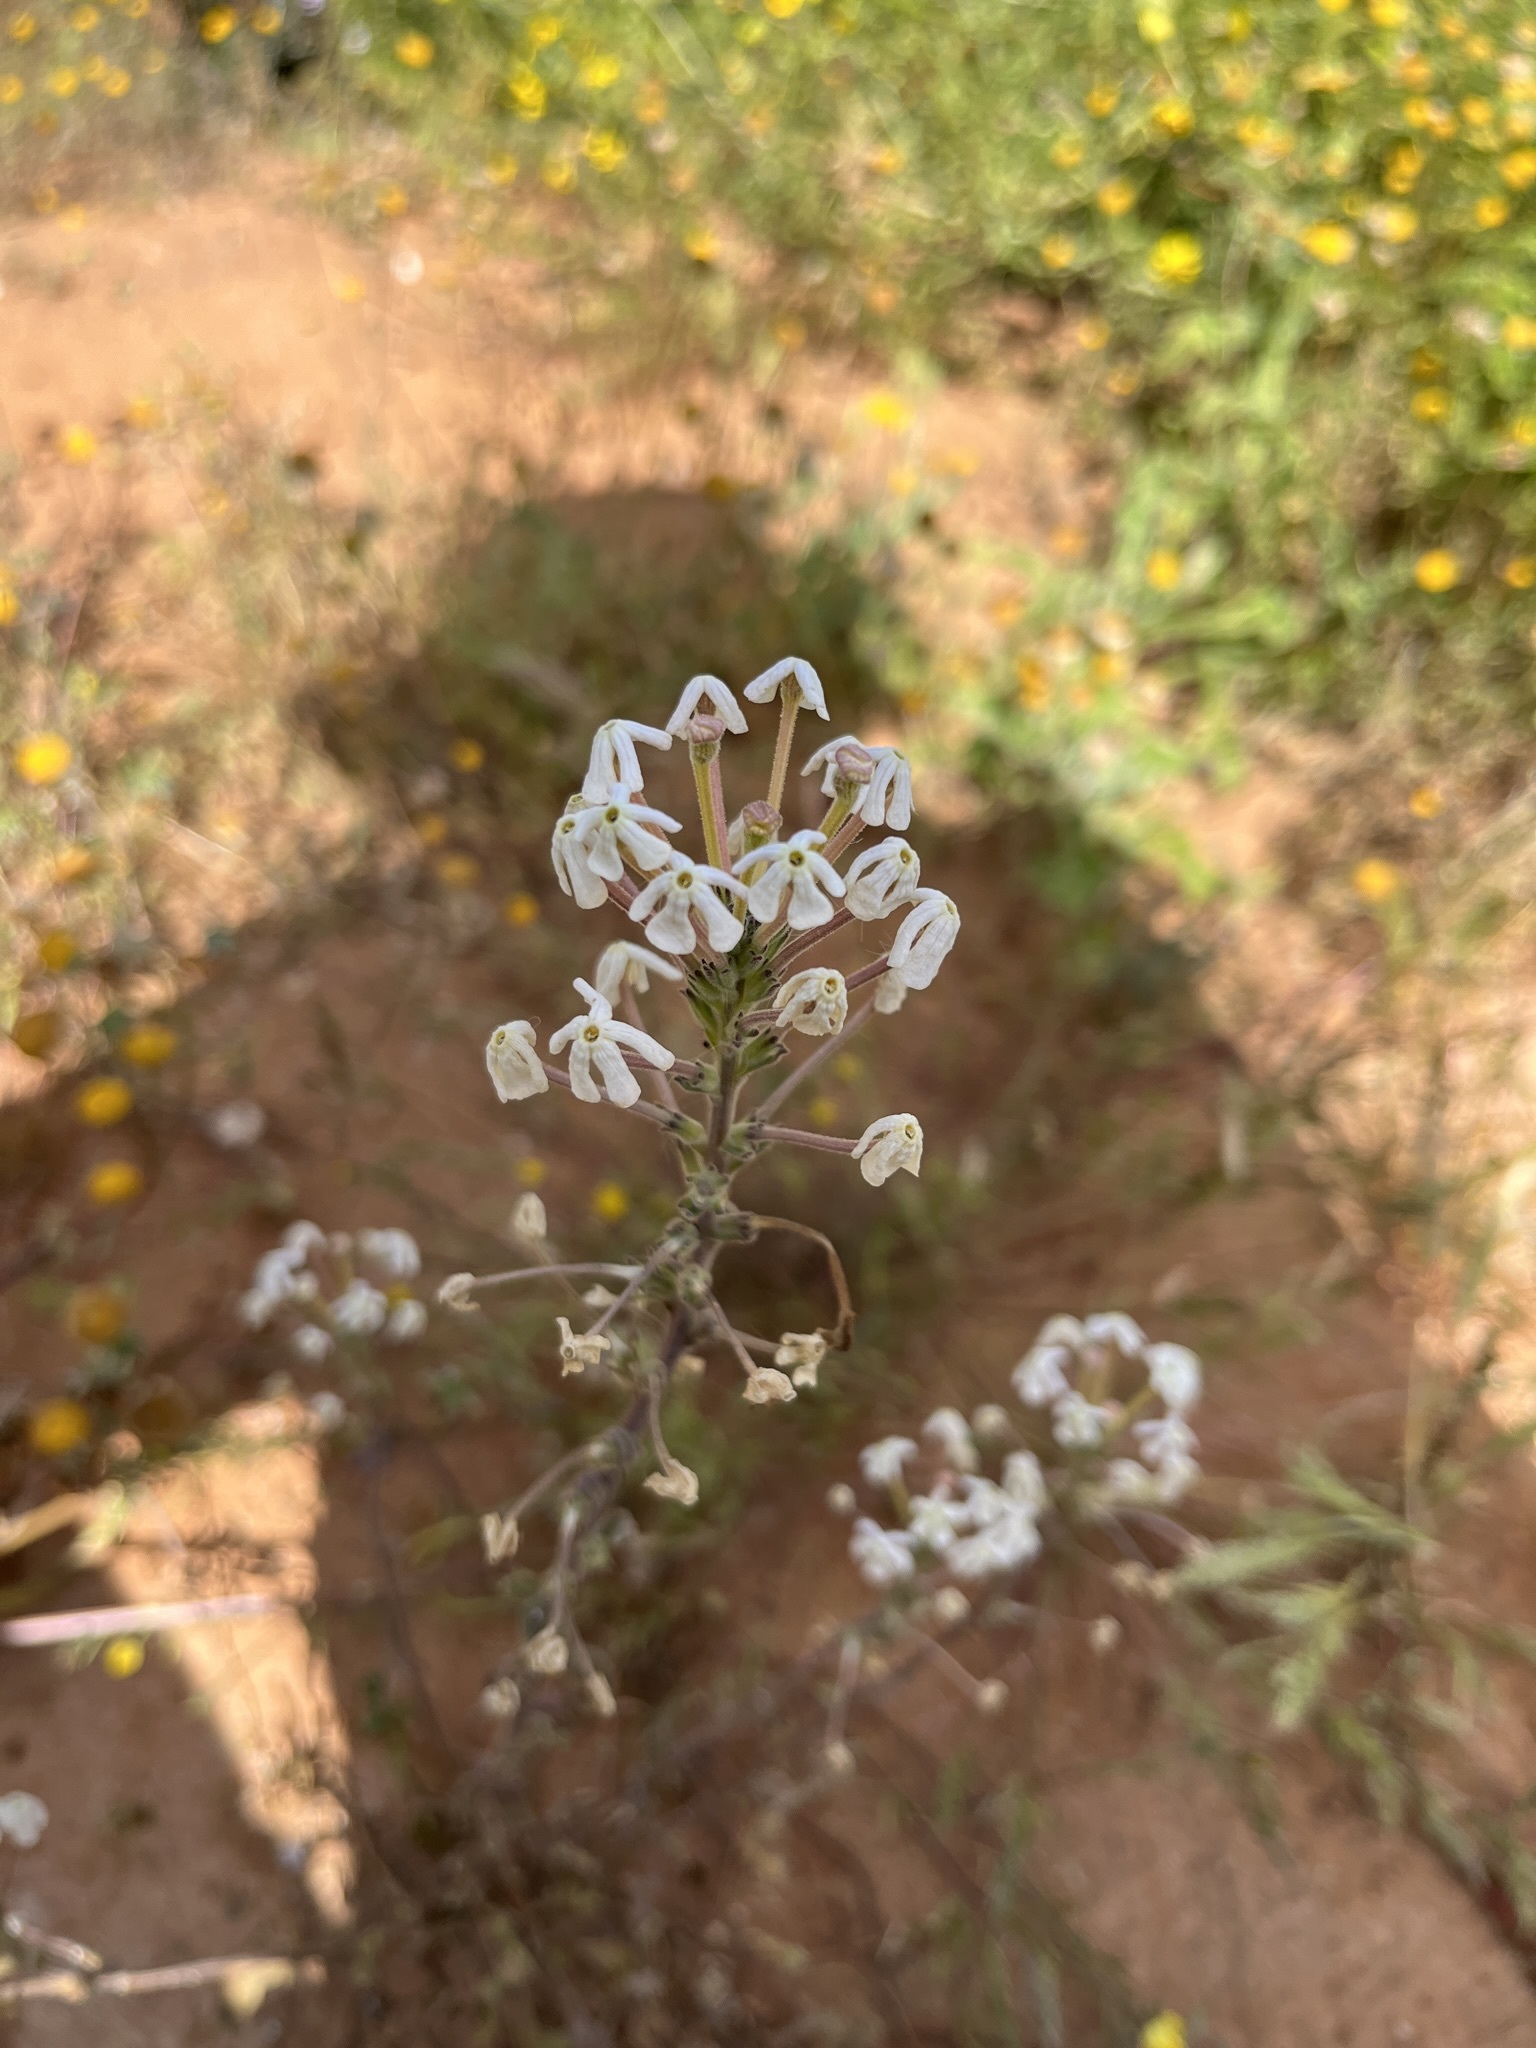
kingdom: Plantae
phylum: Tracheophyta
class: Magnoliopsida
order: Lamiales
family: Scrophulariaceae
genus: Lyperia
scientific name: Lyperia tristis
